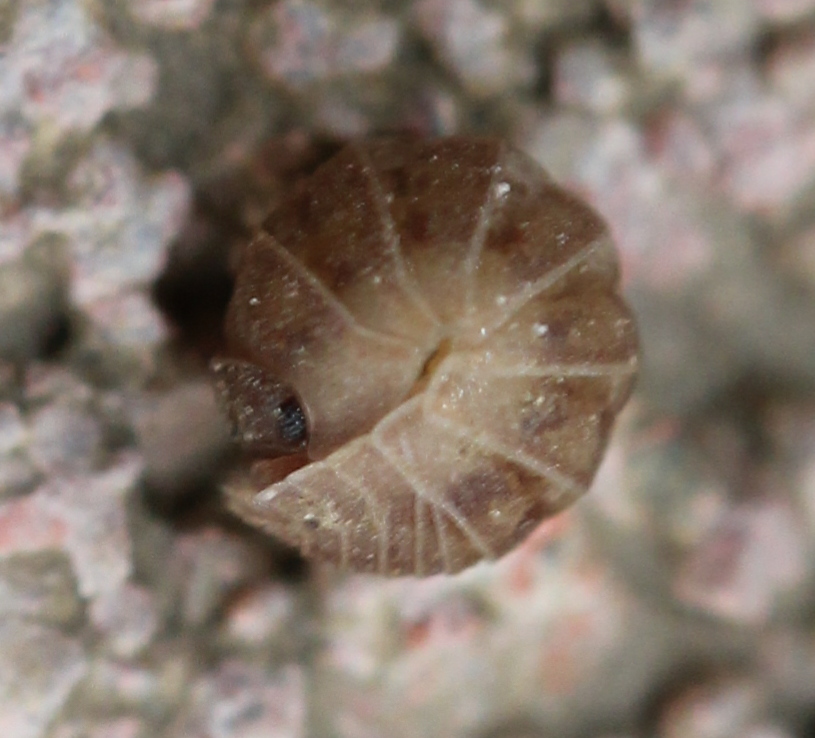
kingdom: Animalia
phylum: Arthropoda
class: Malacostraca
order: Isopoda
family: Armadillidiidae
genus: Armadillidium
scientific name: Armadillidium nasatum
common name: Isopod
